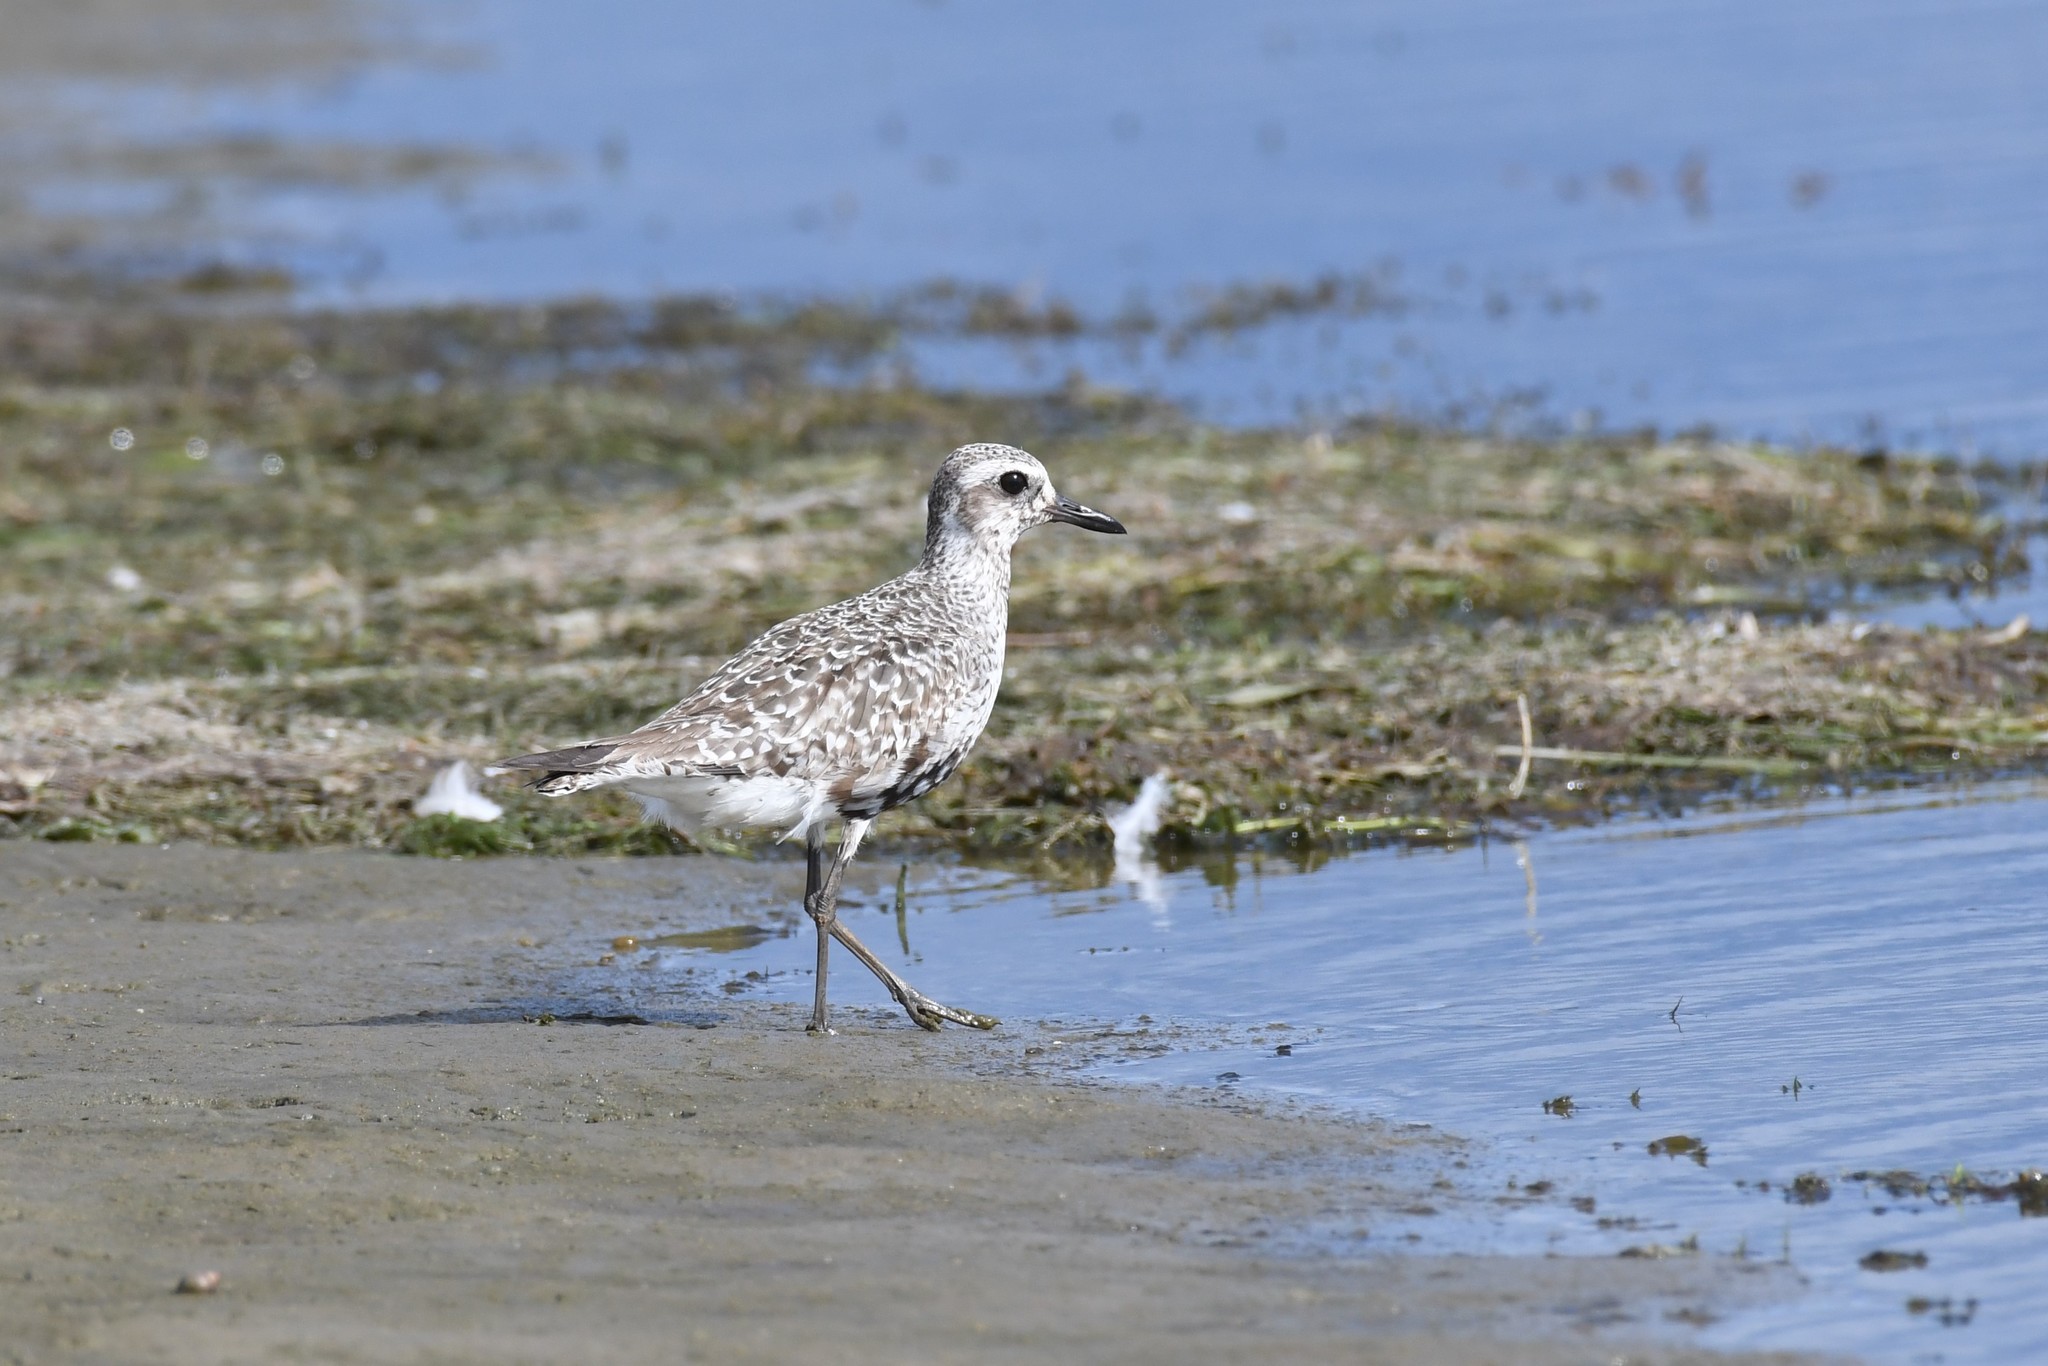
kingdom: Animalia
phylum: Chordata
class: Aves
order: Charadriiformes
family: Charadriidae
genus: Pluvialis
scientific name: Pluvialis squatarola
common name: Grey plover
